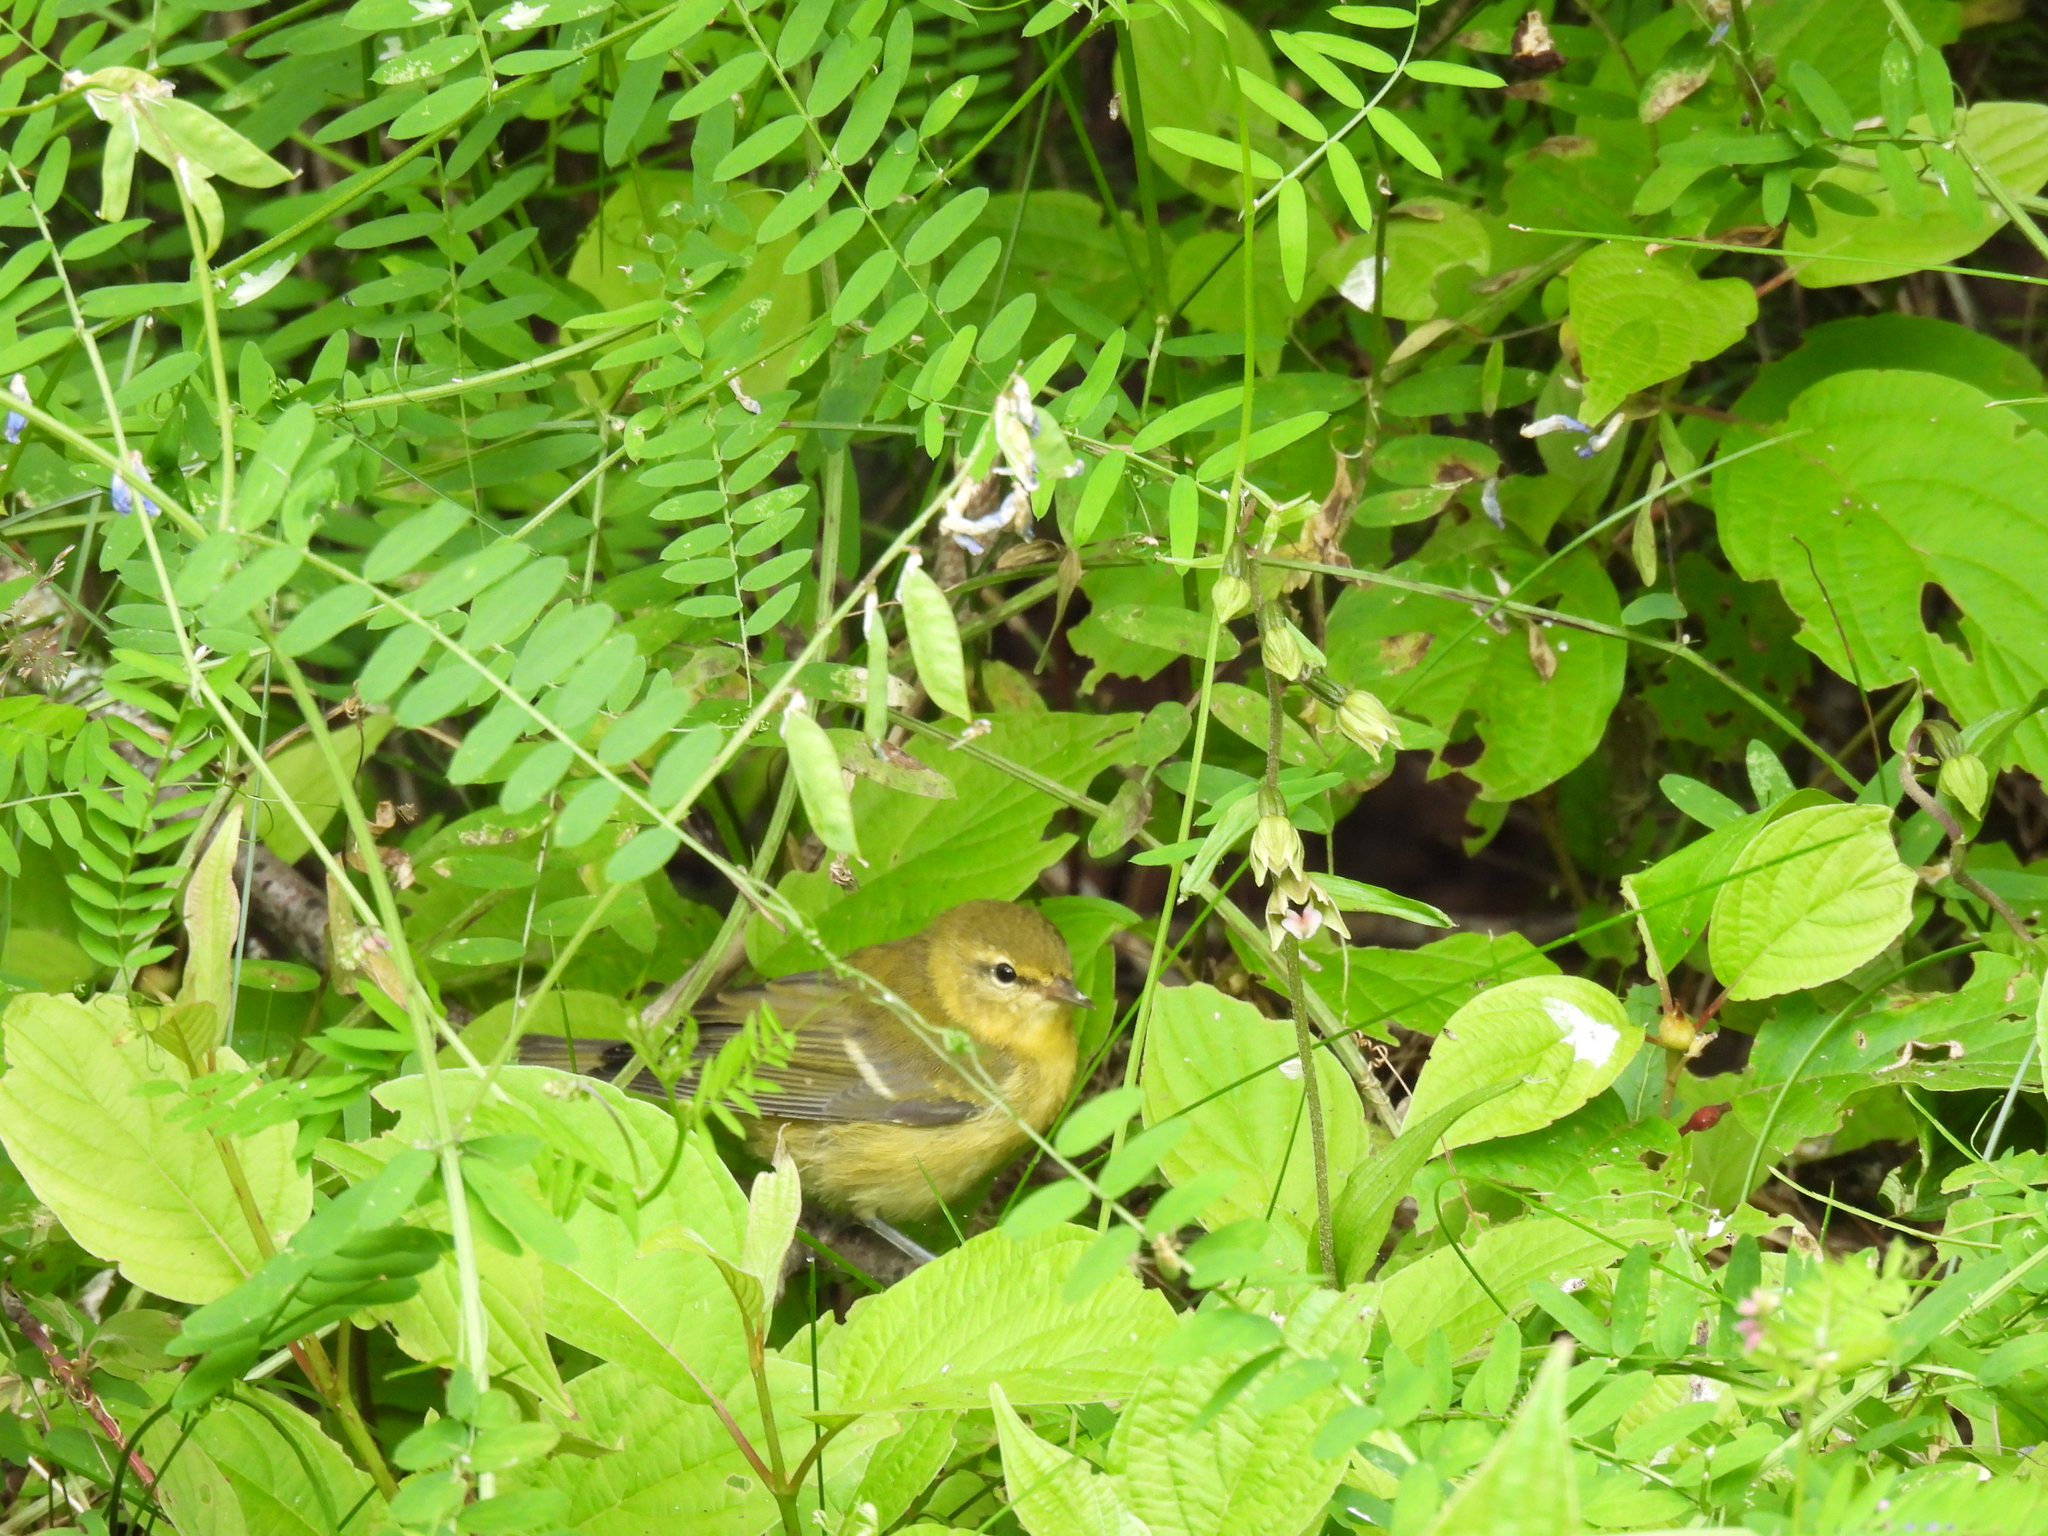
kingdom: Animalia
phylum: Chordata
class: Aves
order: Passeriformes
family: Parulidae
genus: Leiothlypis
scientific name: Leiothlypis peregrina
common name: Tennessee warbler
